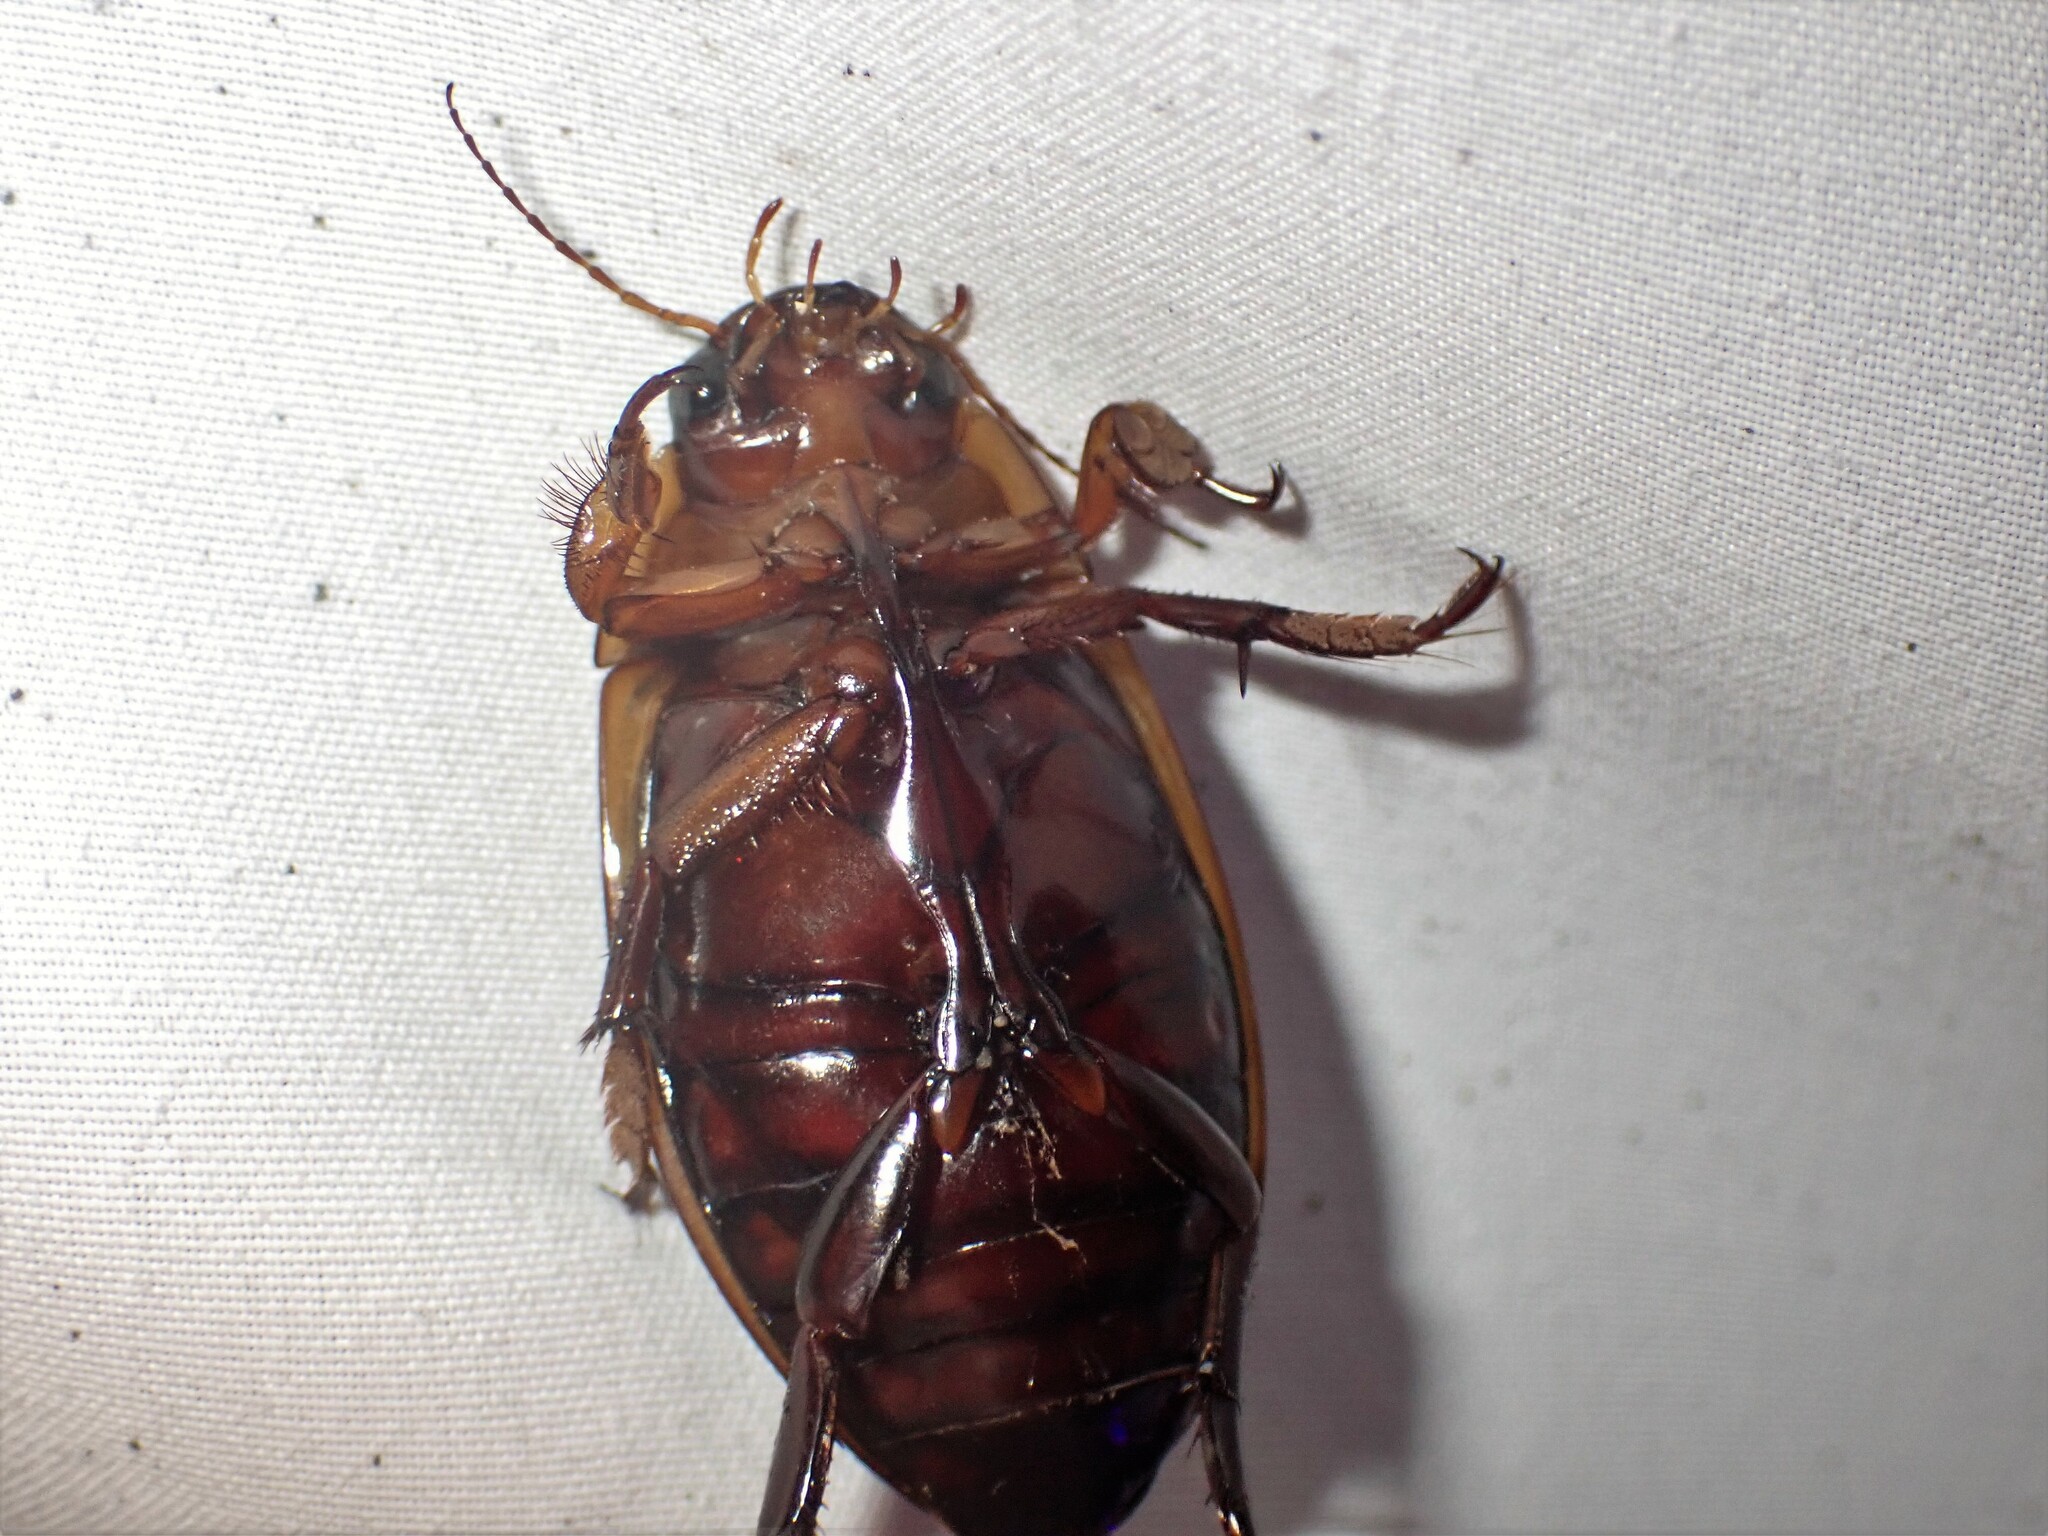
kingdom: Animalia
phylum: Arthropoda
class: Insecta
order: Coleoptera
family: Dytiscidae
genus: Dytiscus
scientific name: Dytiscus verticalis
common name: Vertical diving beetle
